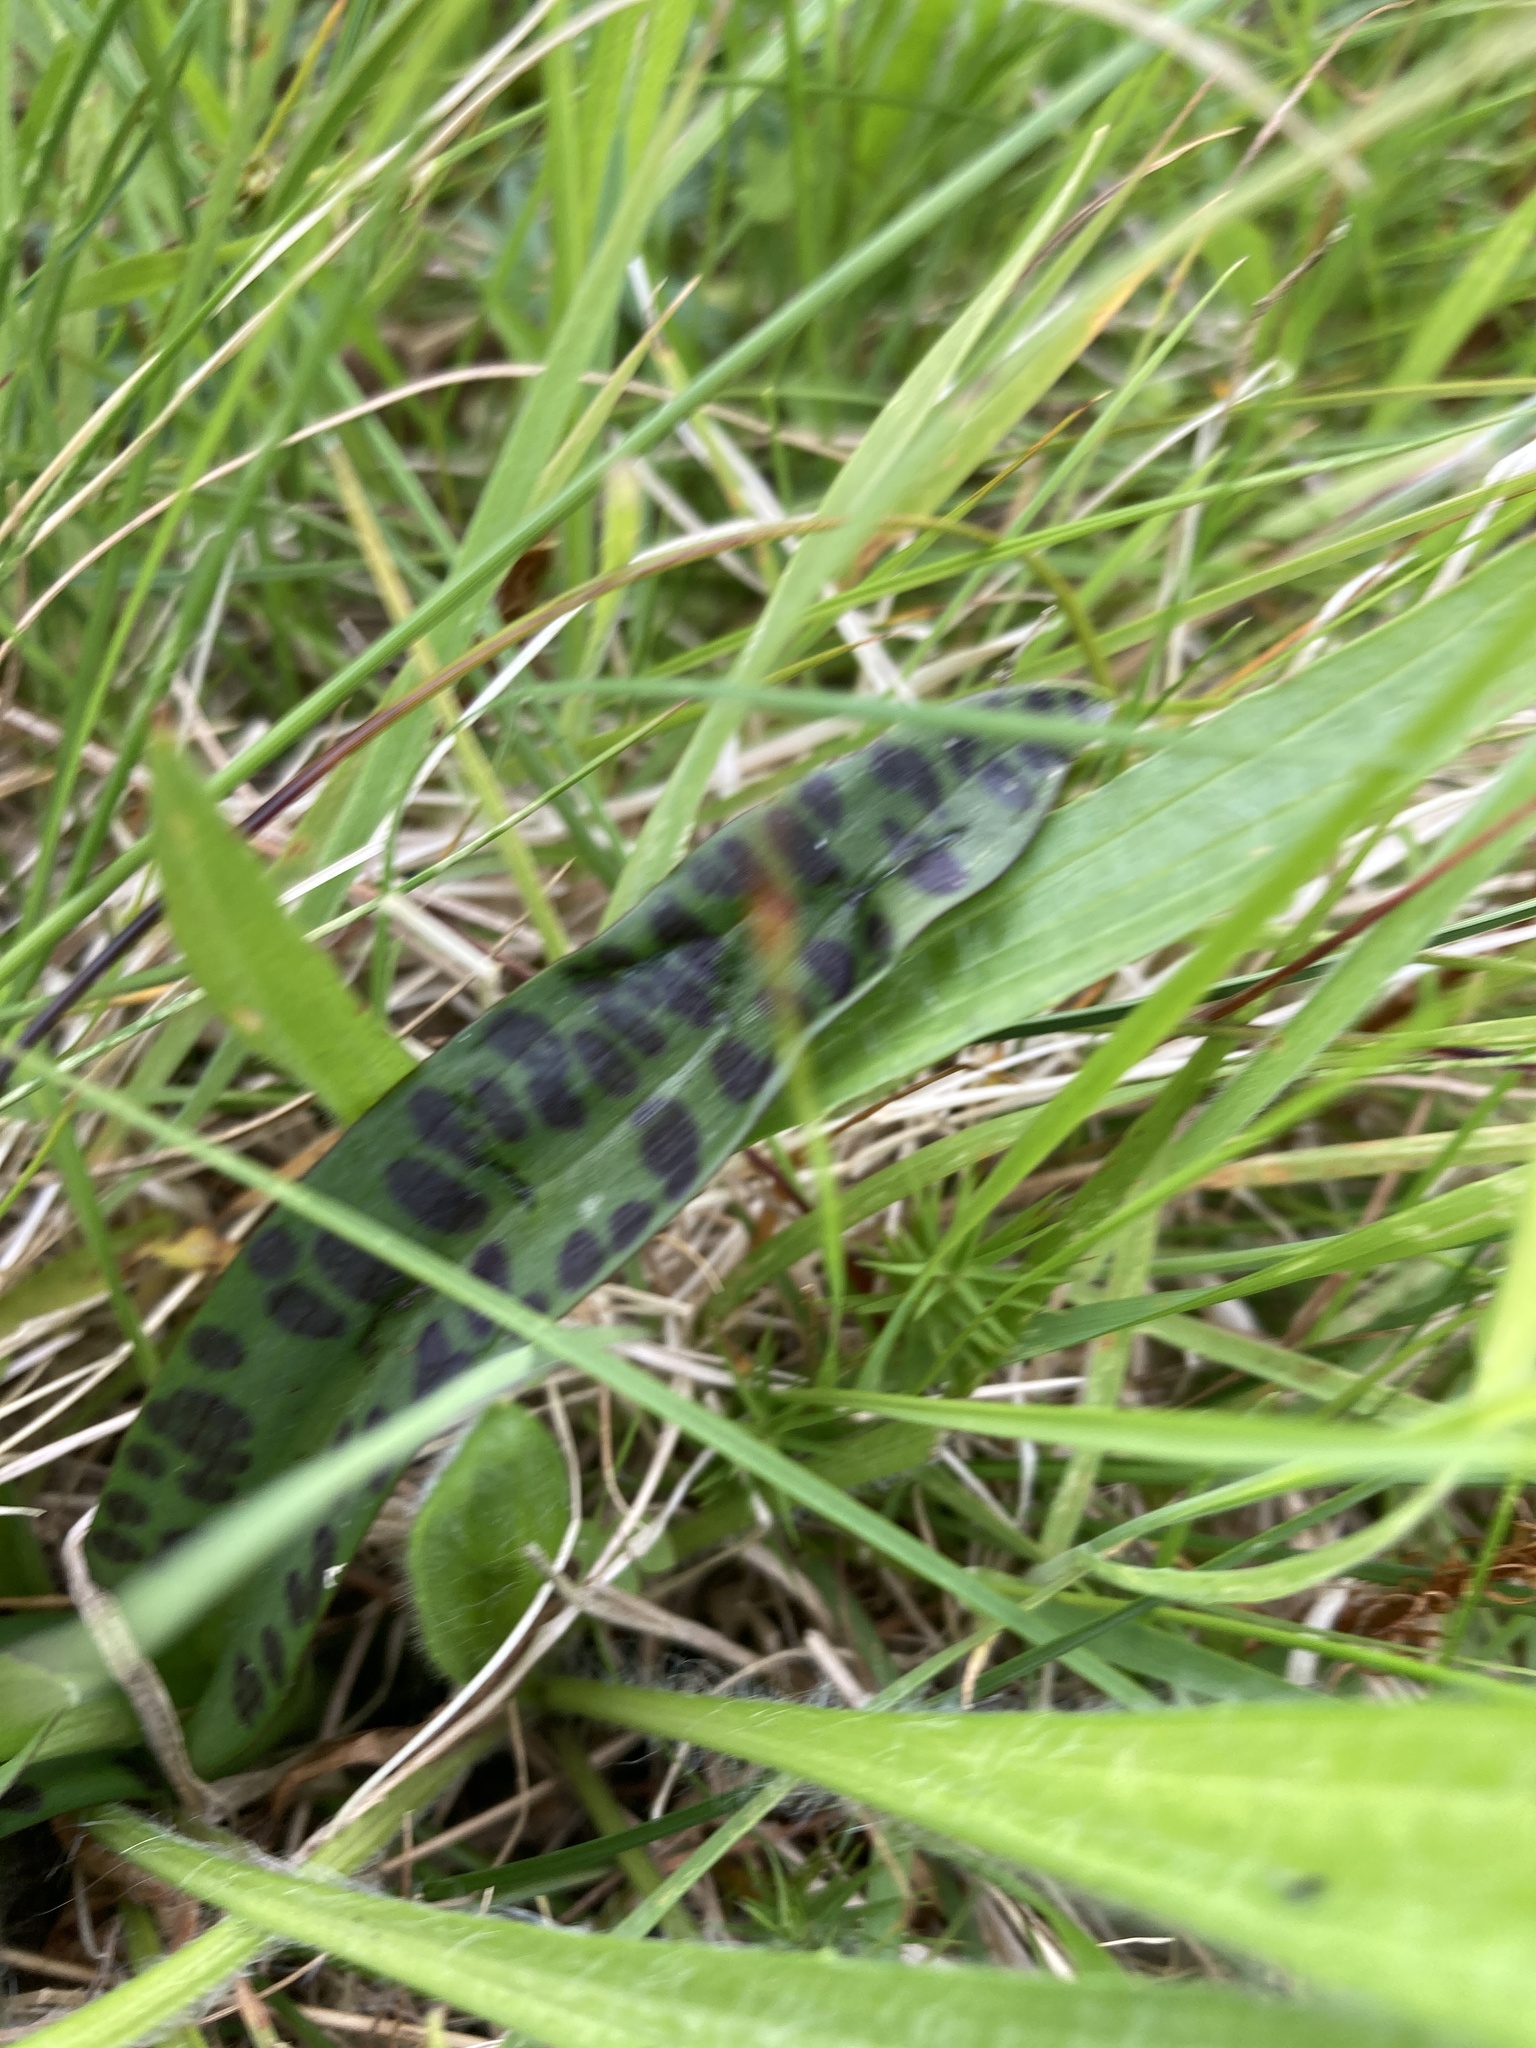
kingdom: Plantae
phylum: Tracheophyta
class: Liliopsida
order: Asparagales
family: Orchidaceae
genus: Dactylorhiza
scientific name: Dactylorhiza maculata
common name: Heath spotted-orchid
